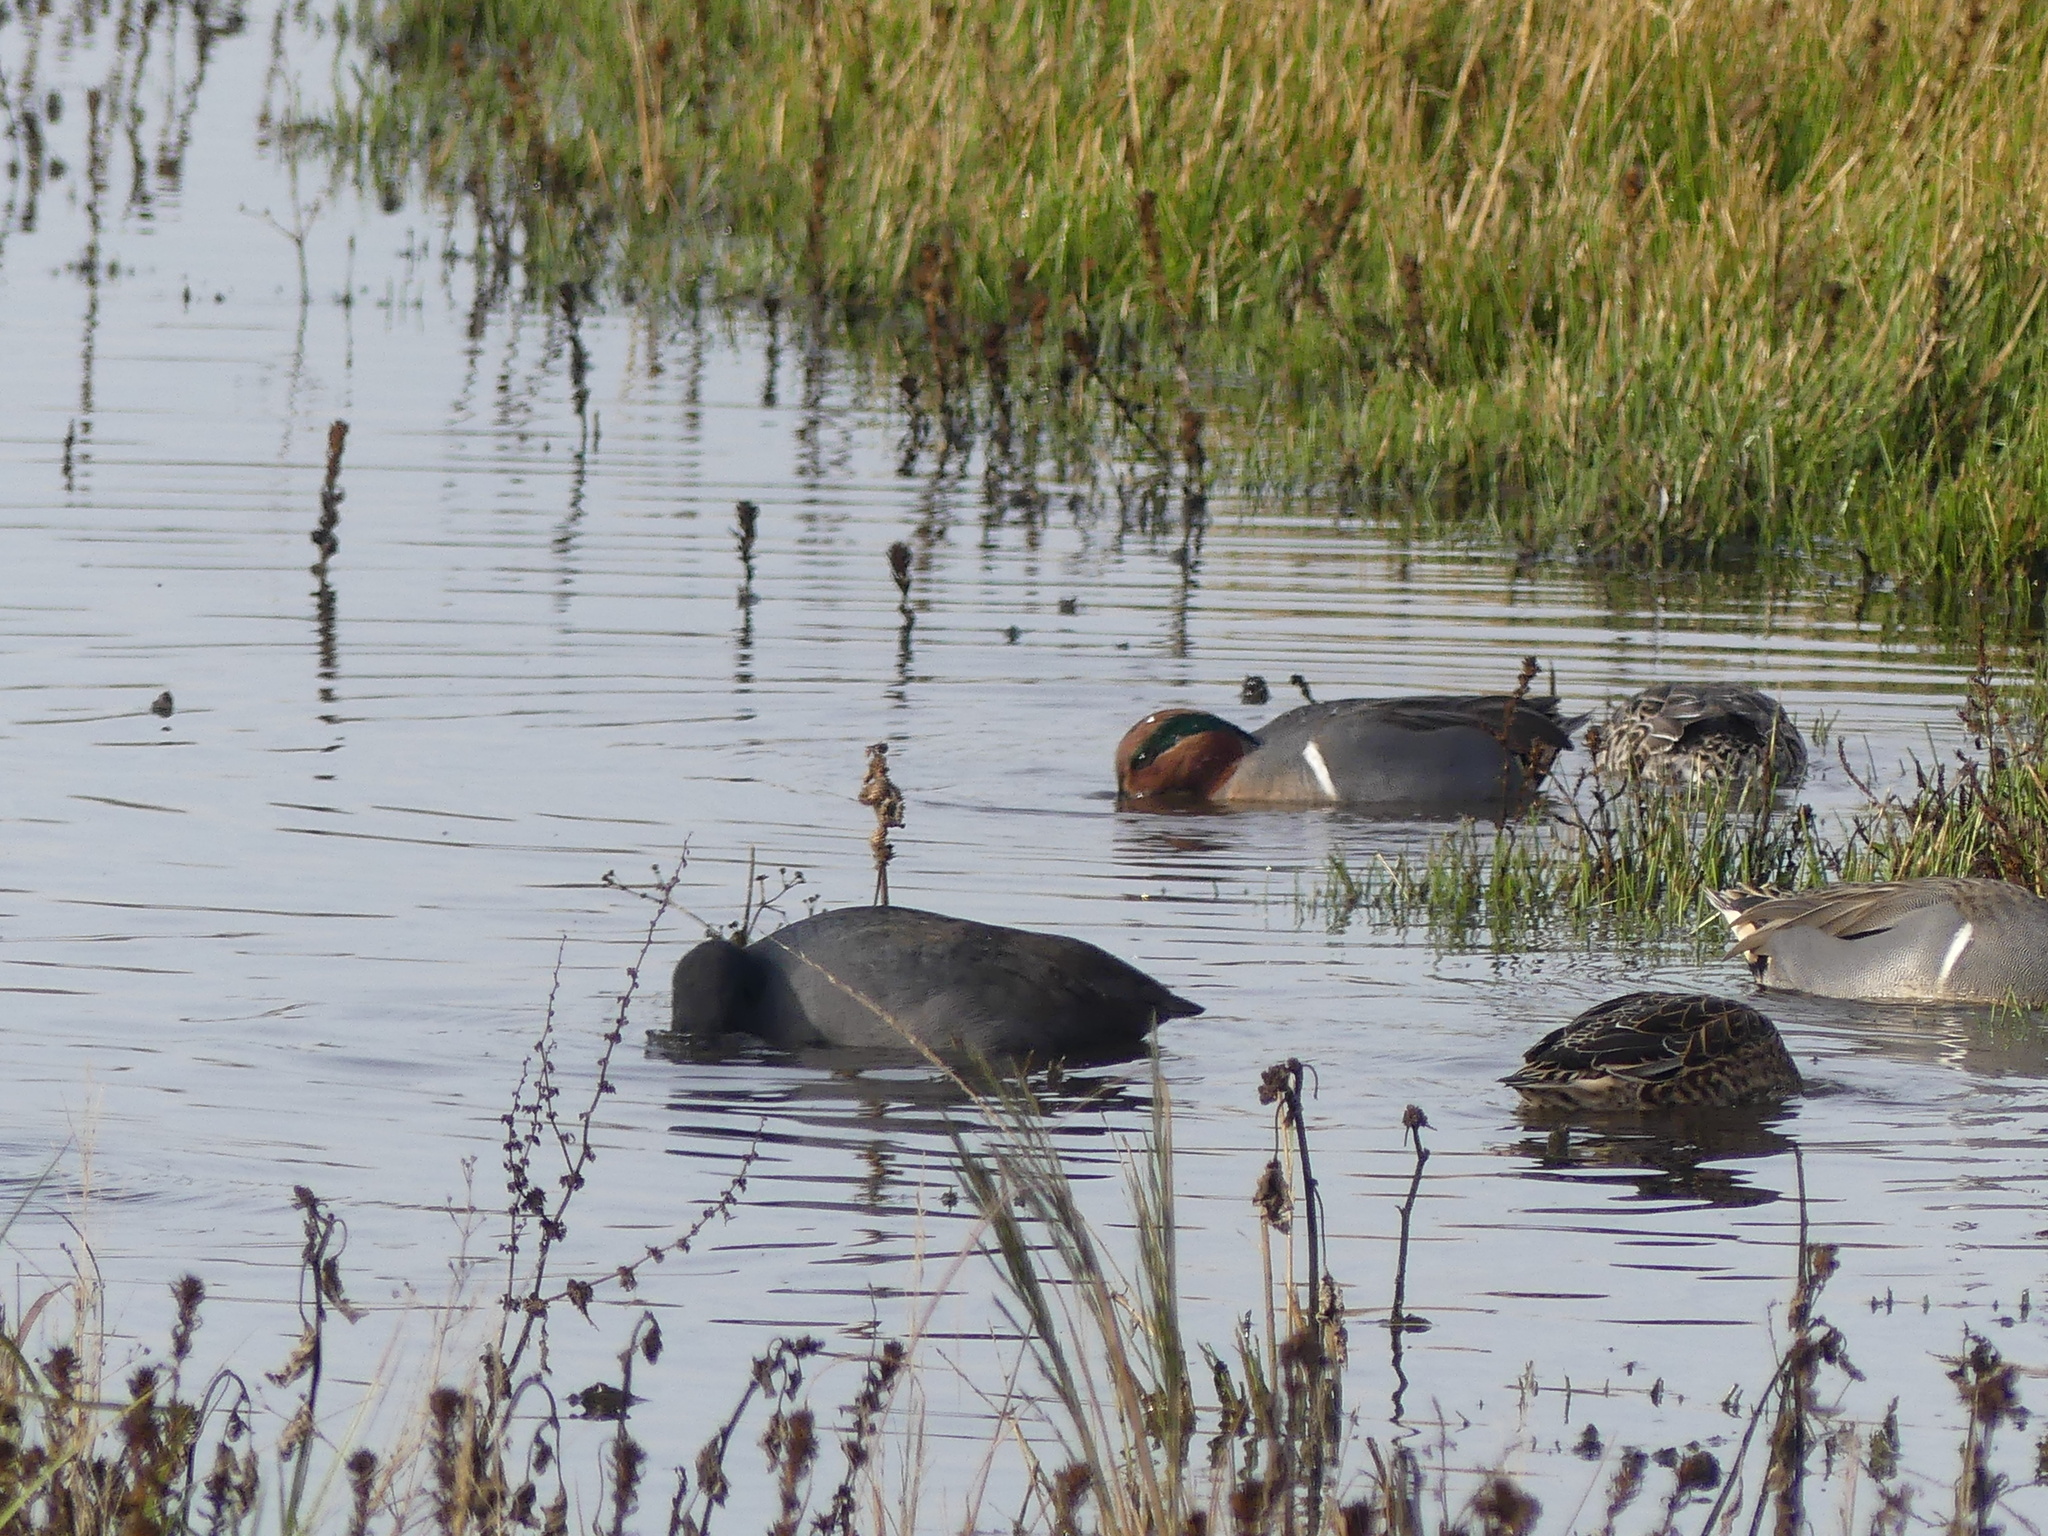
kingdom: Animalia
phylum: Chordata
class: Aves
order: Anseriformes
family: Anatidae
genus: Anas
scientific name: Anas crecca
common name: Eurasian teal
